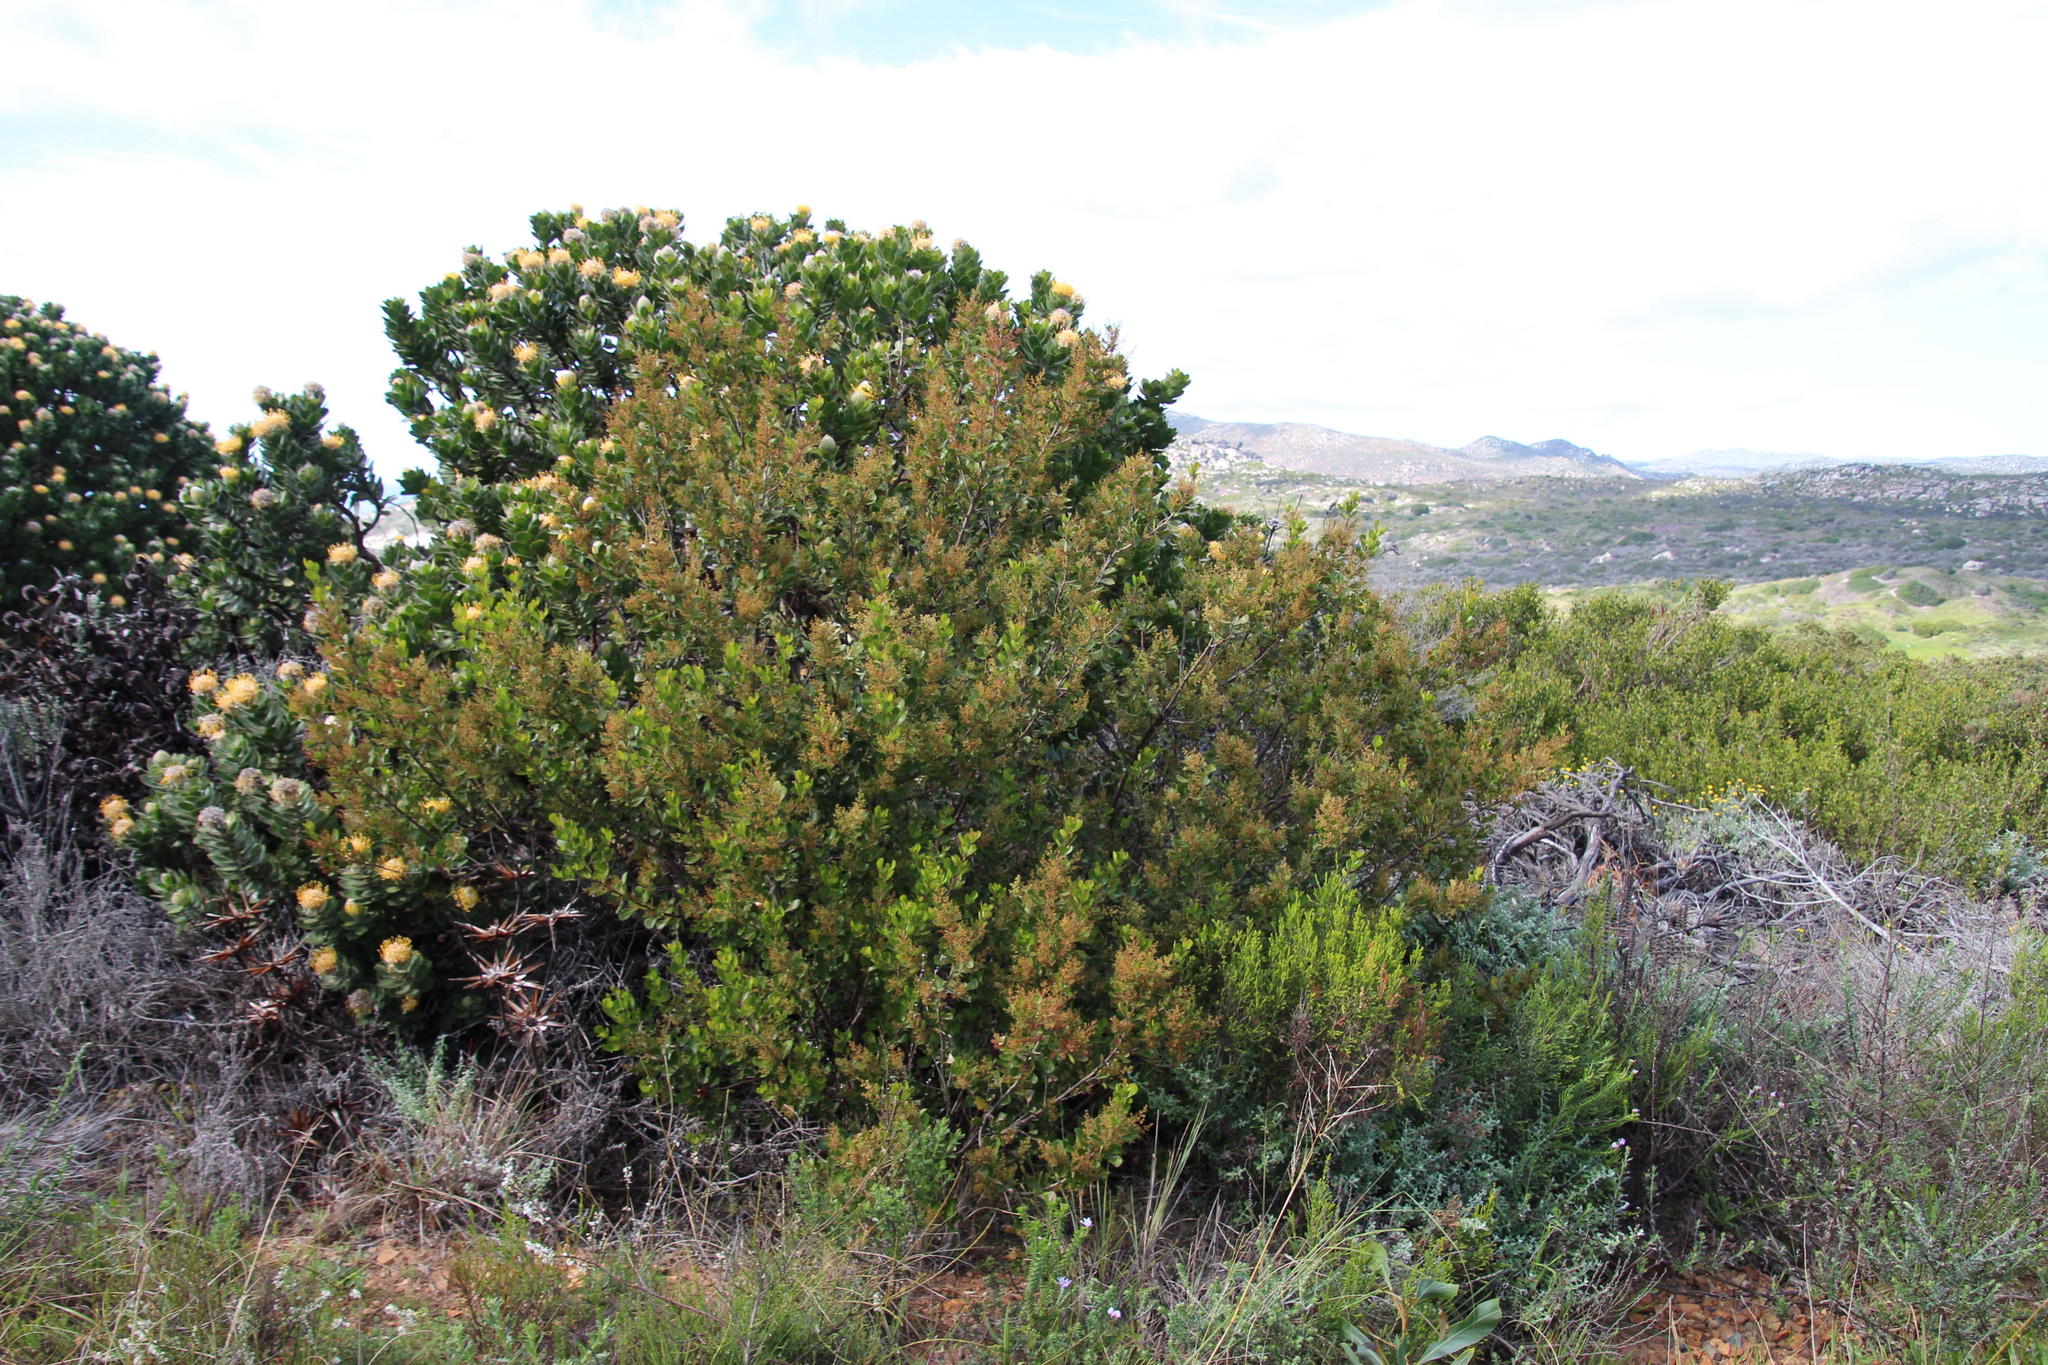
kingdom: Plantae
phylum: Tracheophyta
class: Magnoliopsida
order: Sapindales
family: Anacardiaceae
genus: Searsia
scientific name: Searsia lucida
